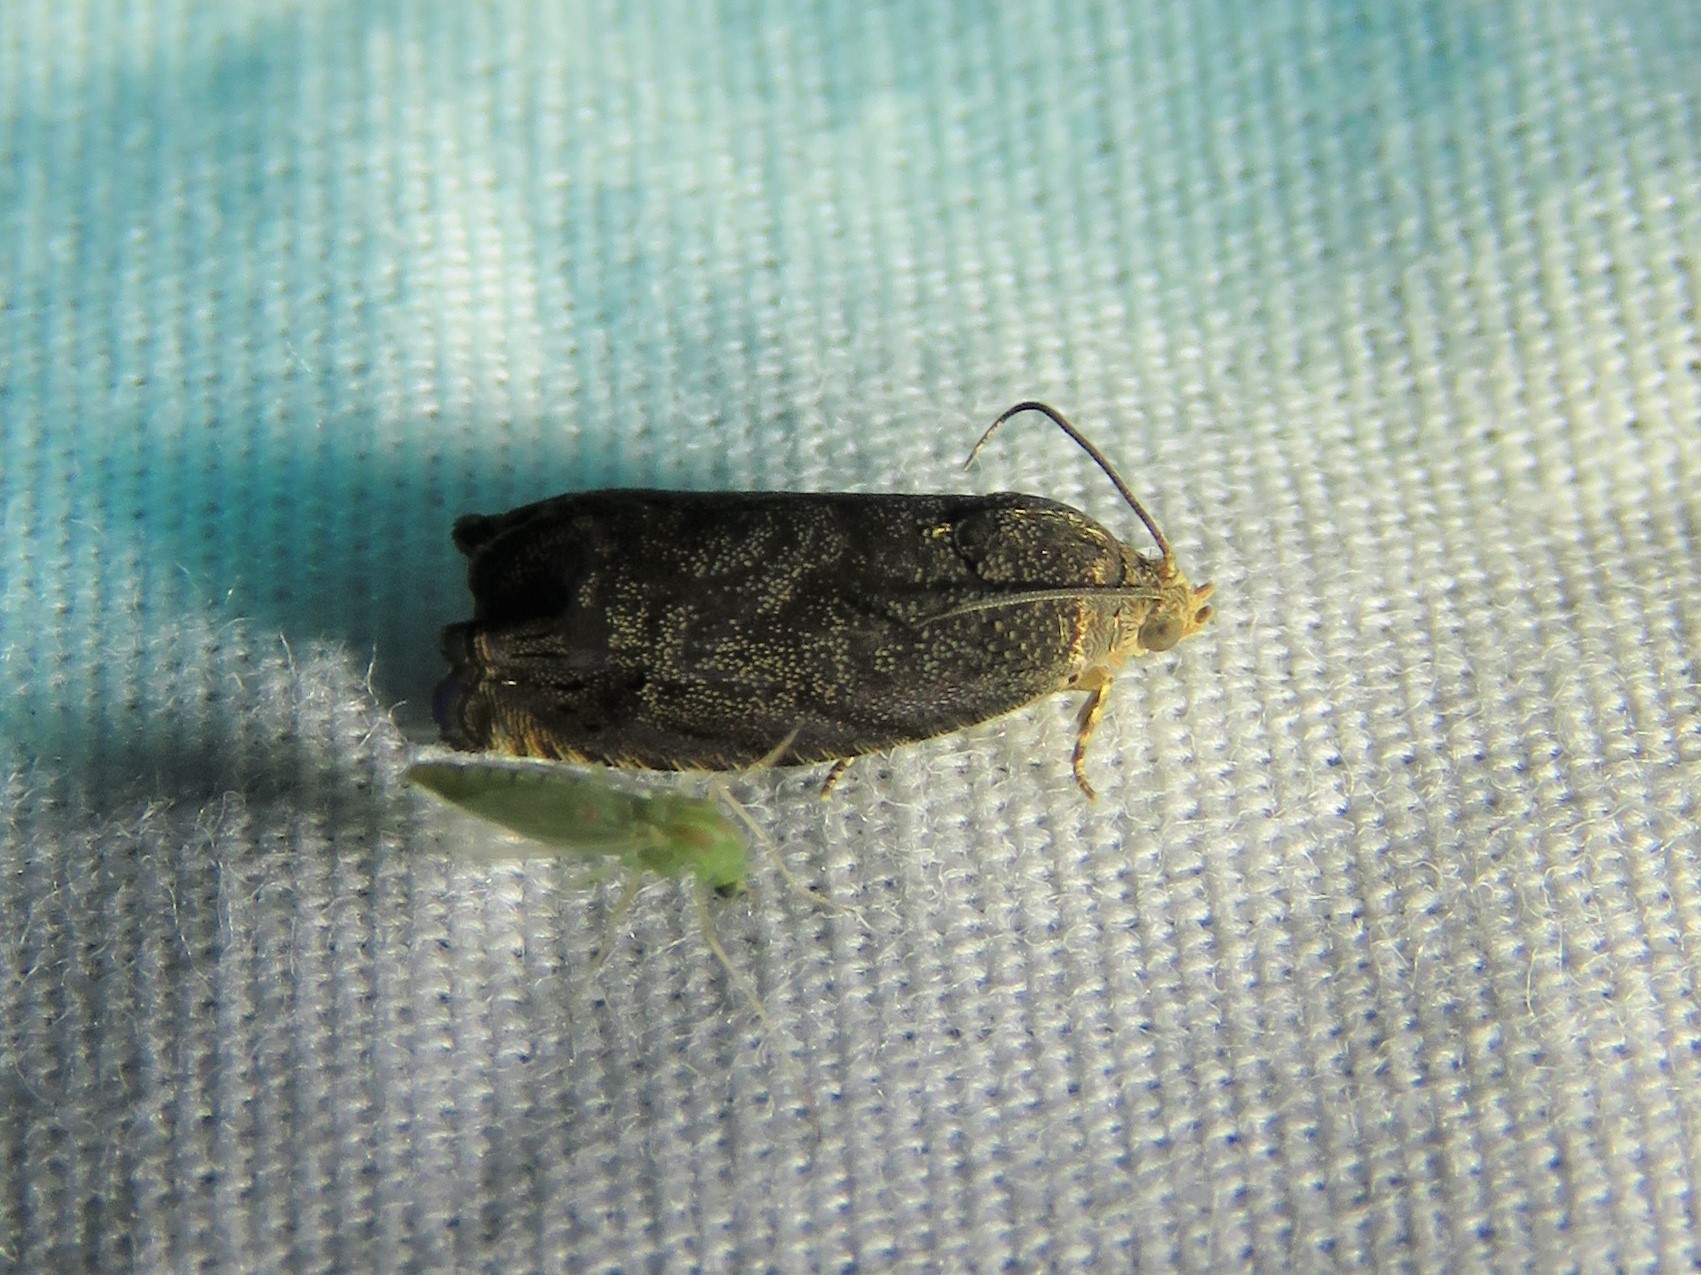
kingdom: Animalia
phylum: Arthropoda
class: Insecta
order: Lepidoptera
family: Tortricidae
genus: Cydia
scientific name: Cydia caryana
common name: Hickory shuckworm moth
